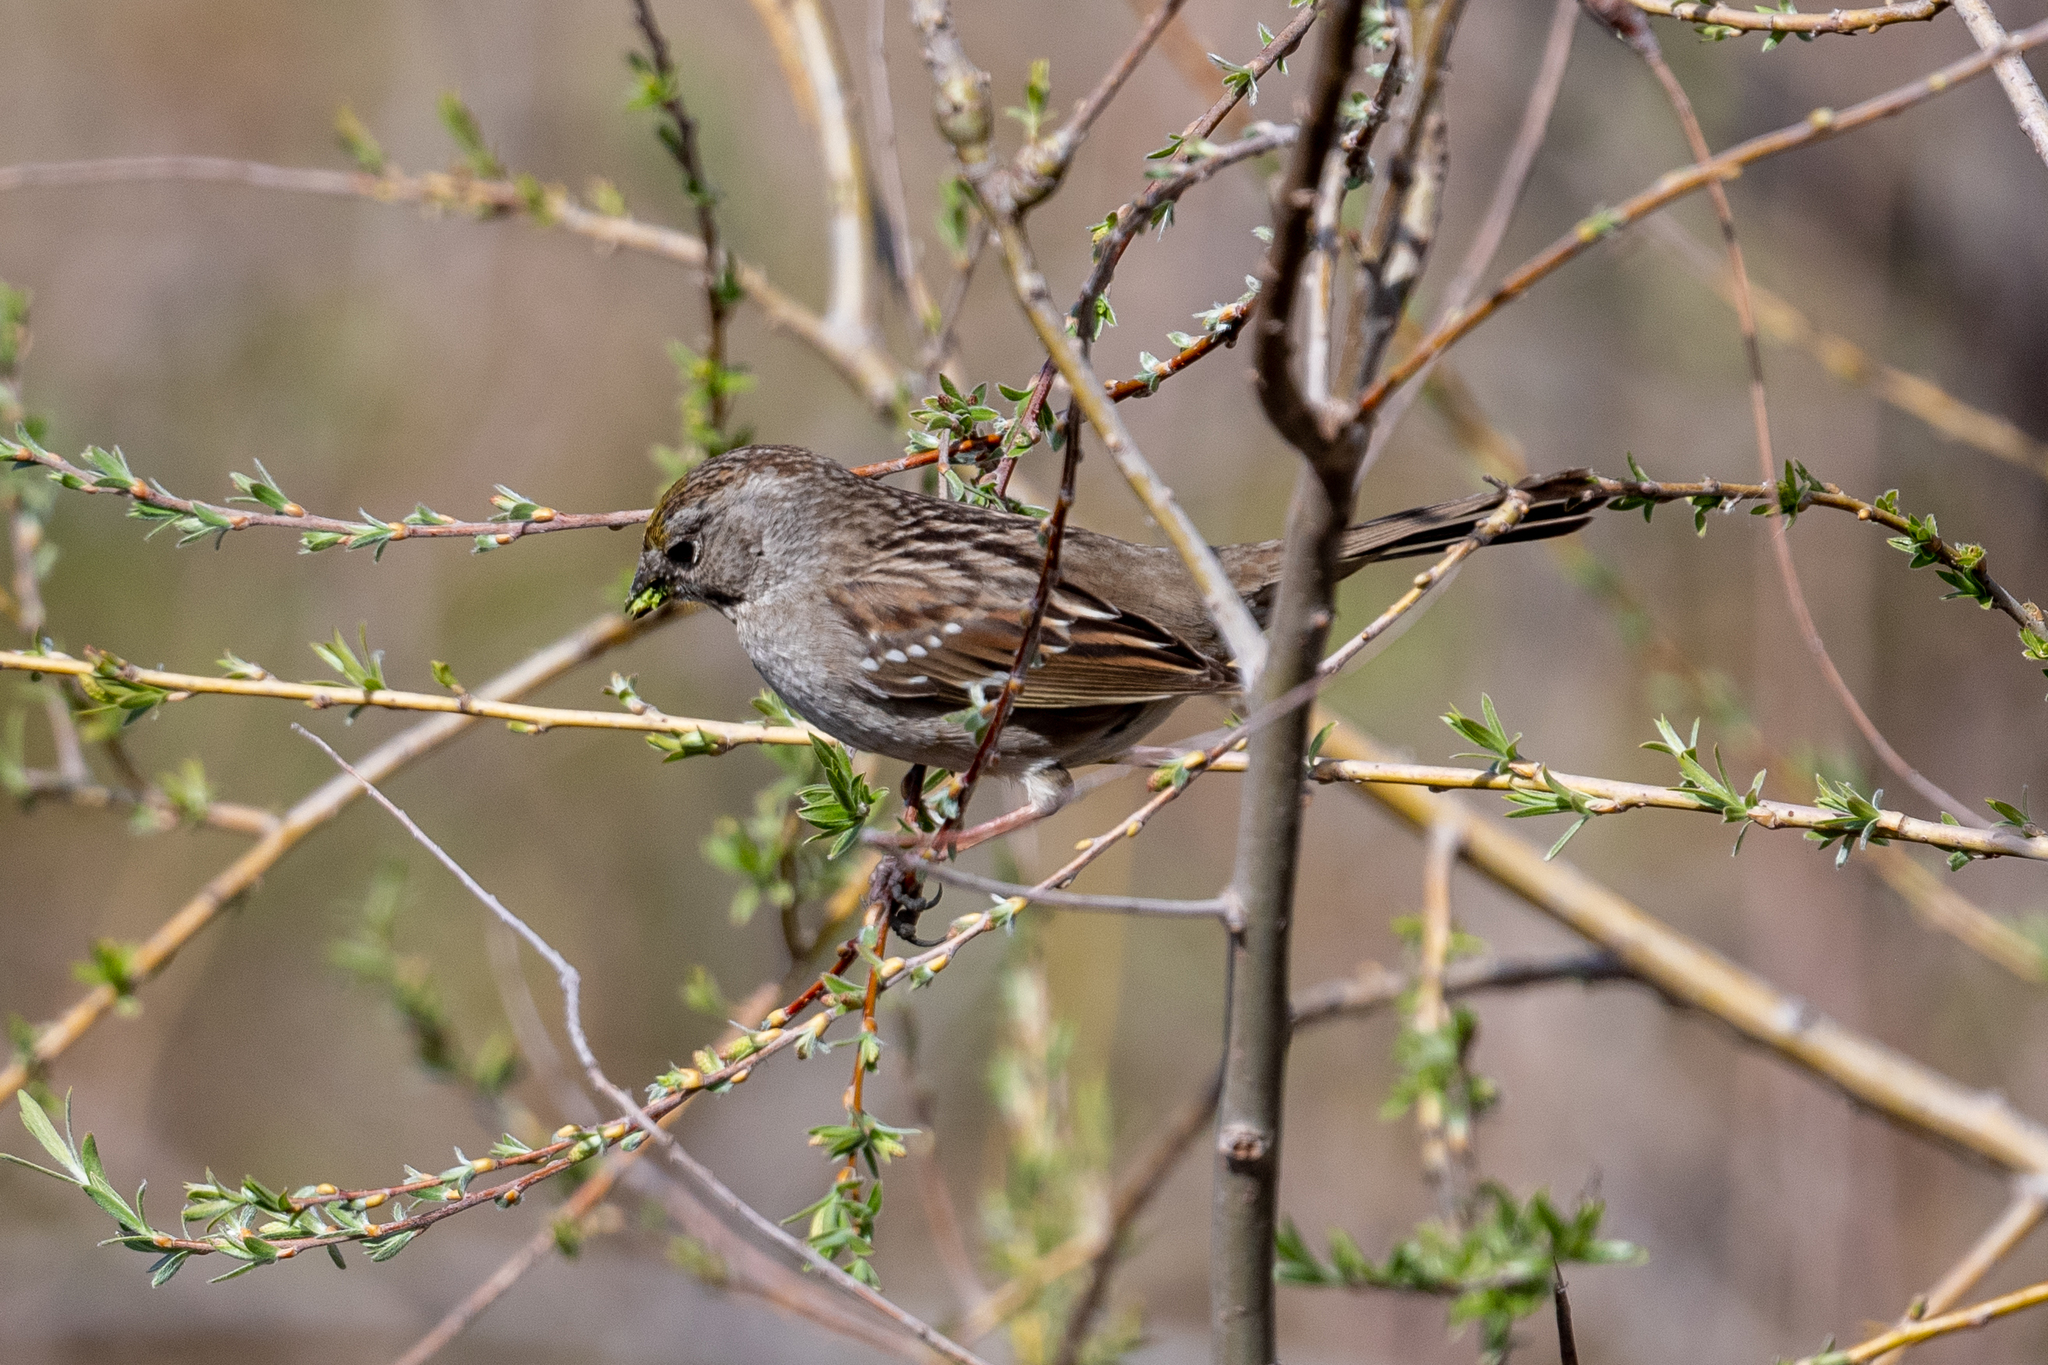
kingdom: Animalia
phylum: Chordata
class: Aves
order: Passeriformes
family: Passerellidae
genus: Zonotrichia
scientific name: Zonotrichia atricapilla
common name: Golden-crowned sparrow
